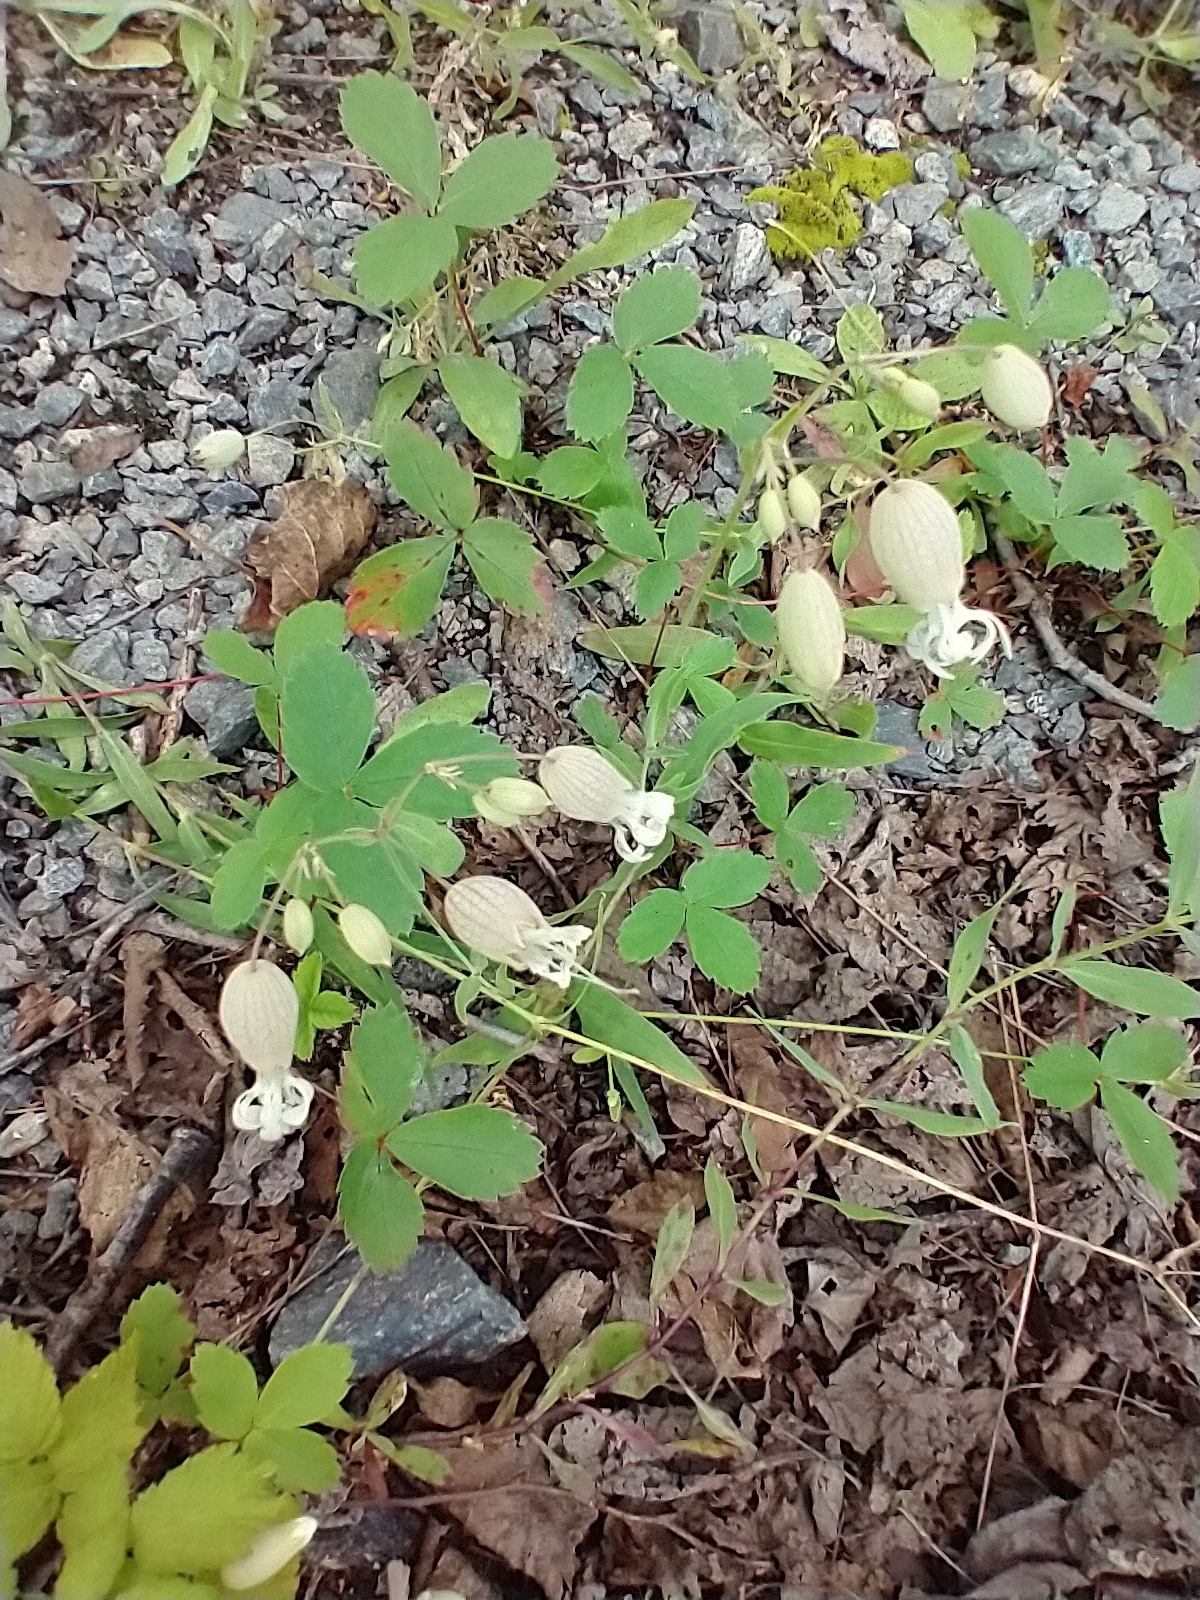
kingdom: Plantae
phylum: Tracheophyta
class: Magnoliopsida
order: Caryophyllales
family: Caryophyllaceae
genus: Silene
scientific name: Silene vulgaris
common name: Bladder campion
